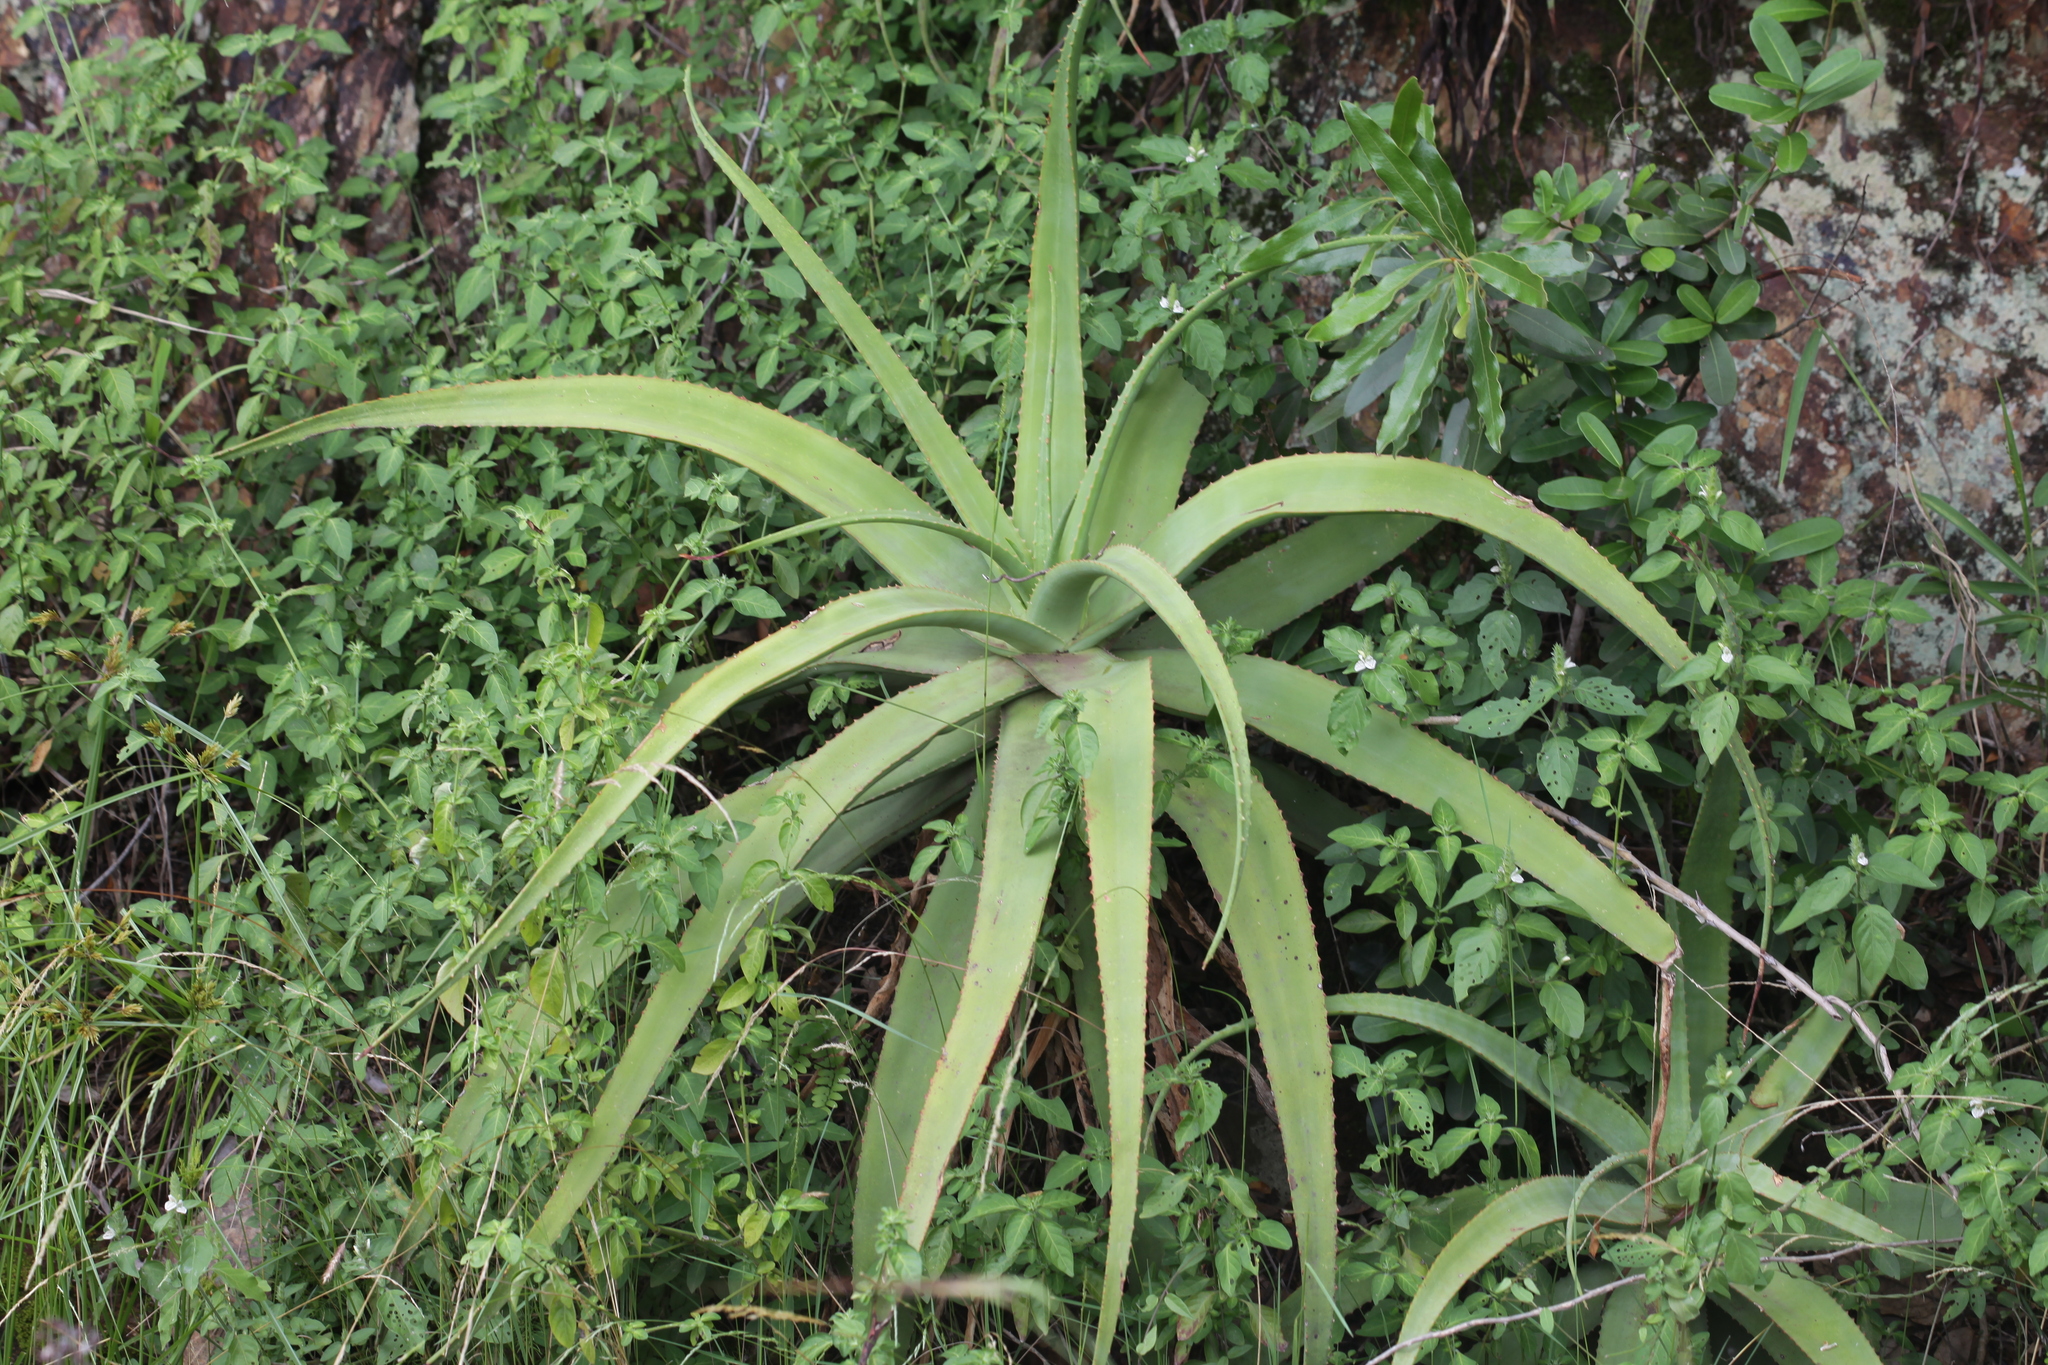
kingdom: Plantae
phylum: Tracheophyta
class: Liliopsida
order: Asparagales
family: Asphodelaceae
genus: Aloe
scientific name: Aloe spicata
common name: Gazaland aloe
